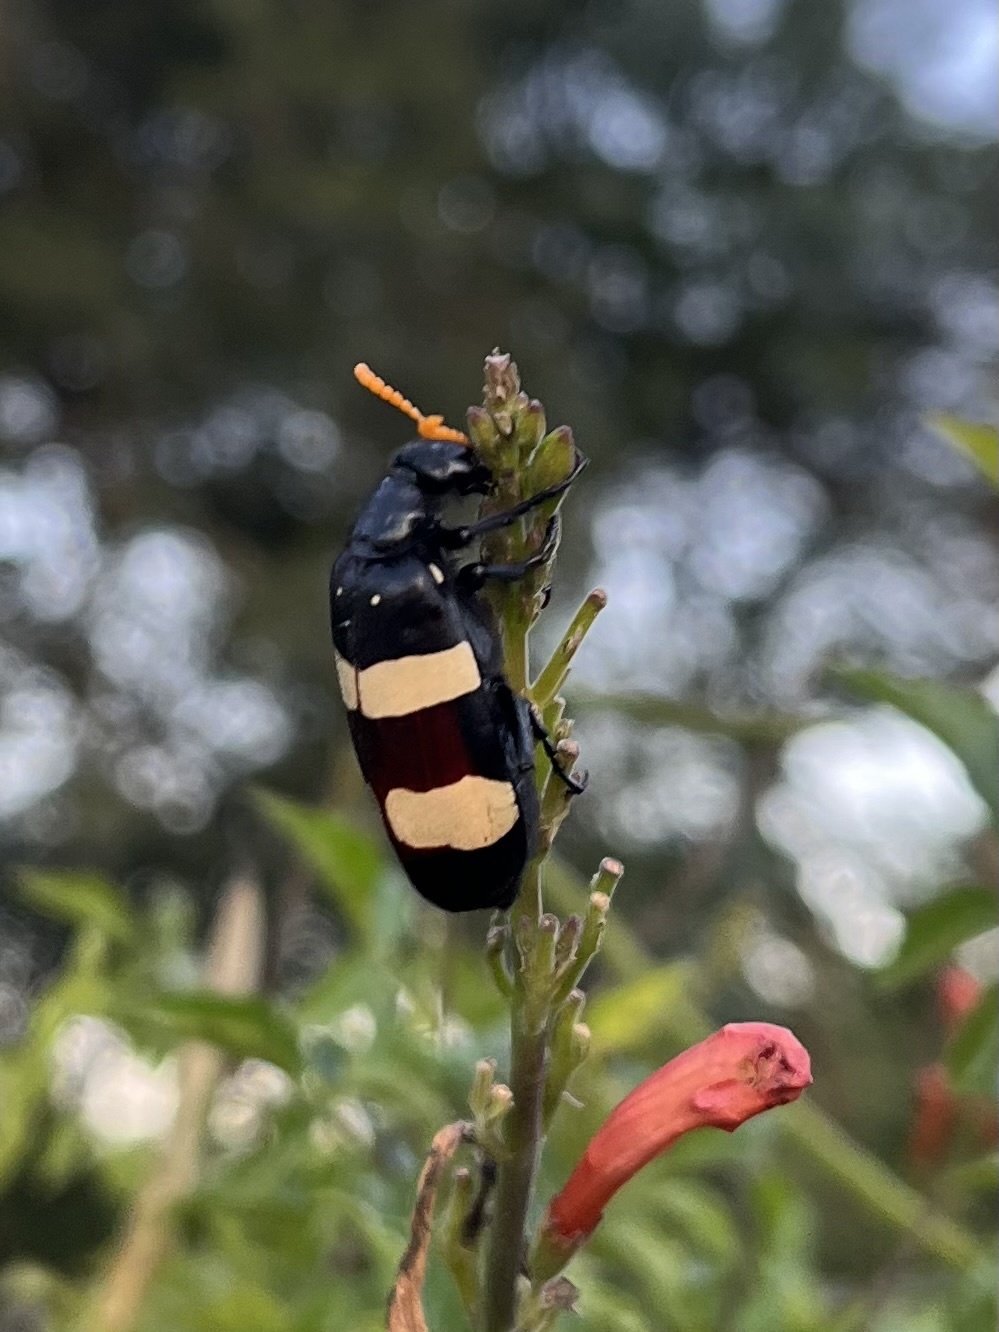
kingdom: Animalia
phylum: Arthropoda
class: Insecta
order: Coleoptera
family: Meloidae
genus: Hycleus
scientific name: Hycleus
